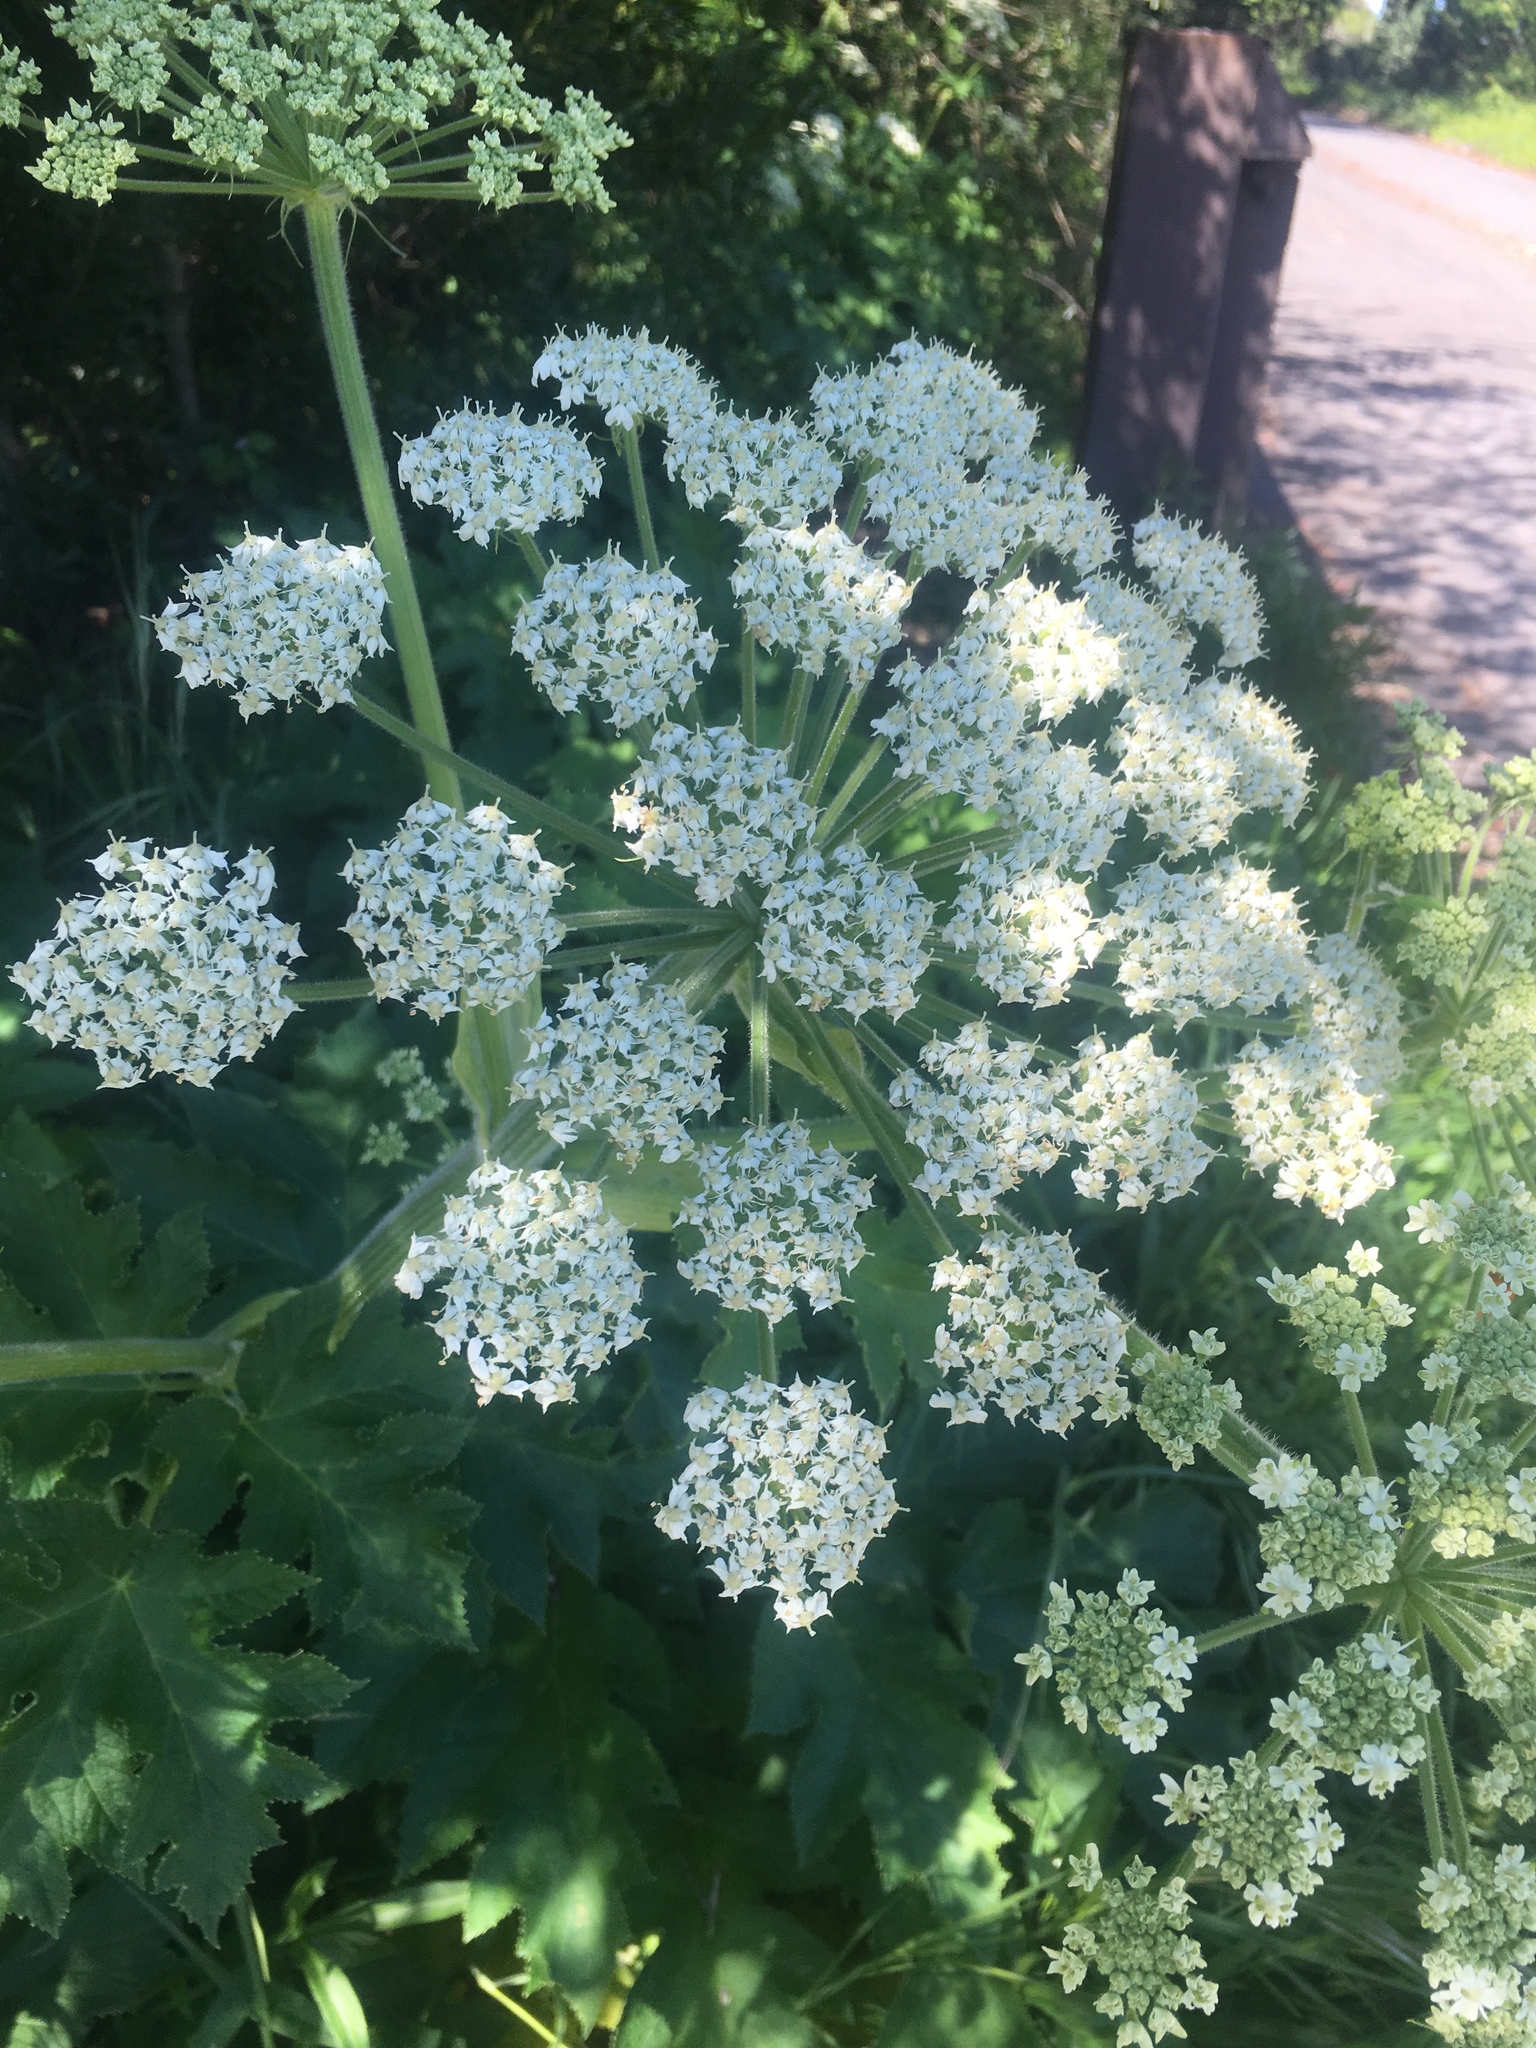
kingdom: Plantae
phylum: Tracheophyta
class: Magnoliopsida
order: Apiales
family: Apiaceae
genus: Heracleum
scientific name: Heracleum maximum
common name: American cow parsnip
